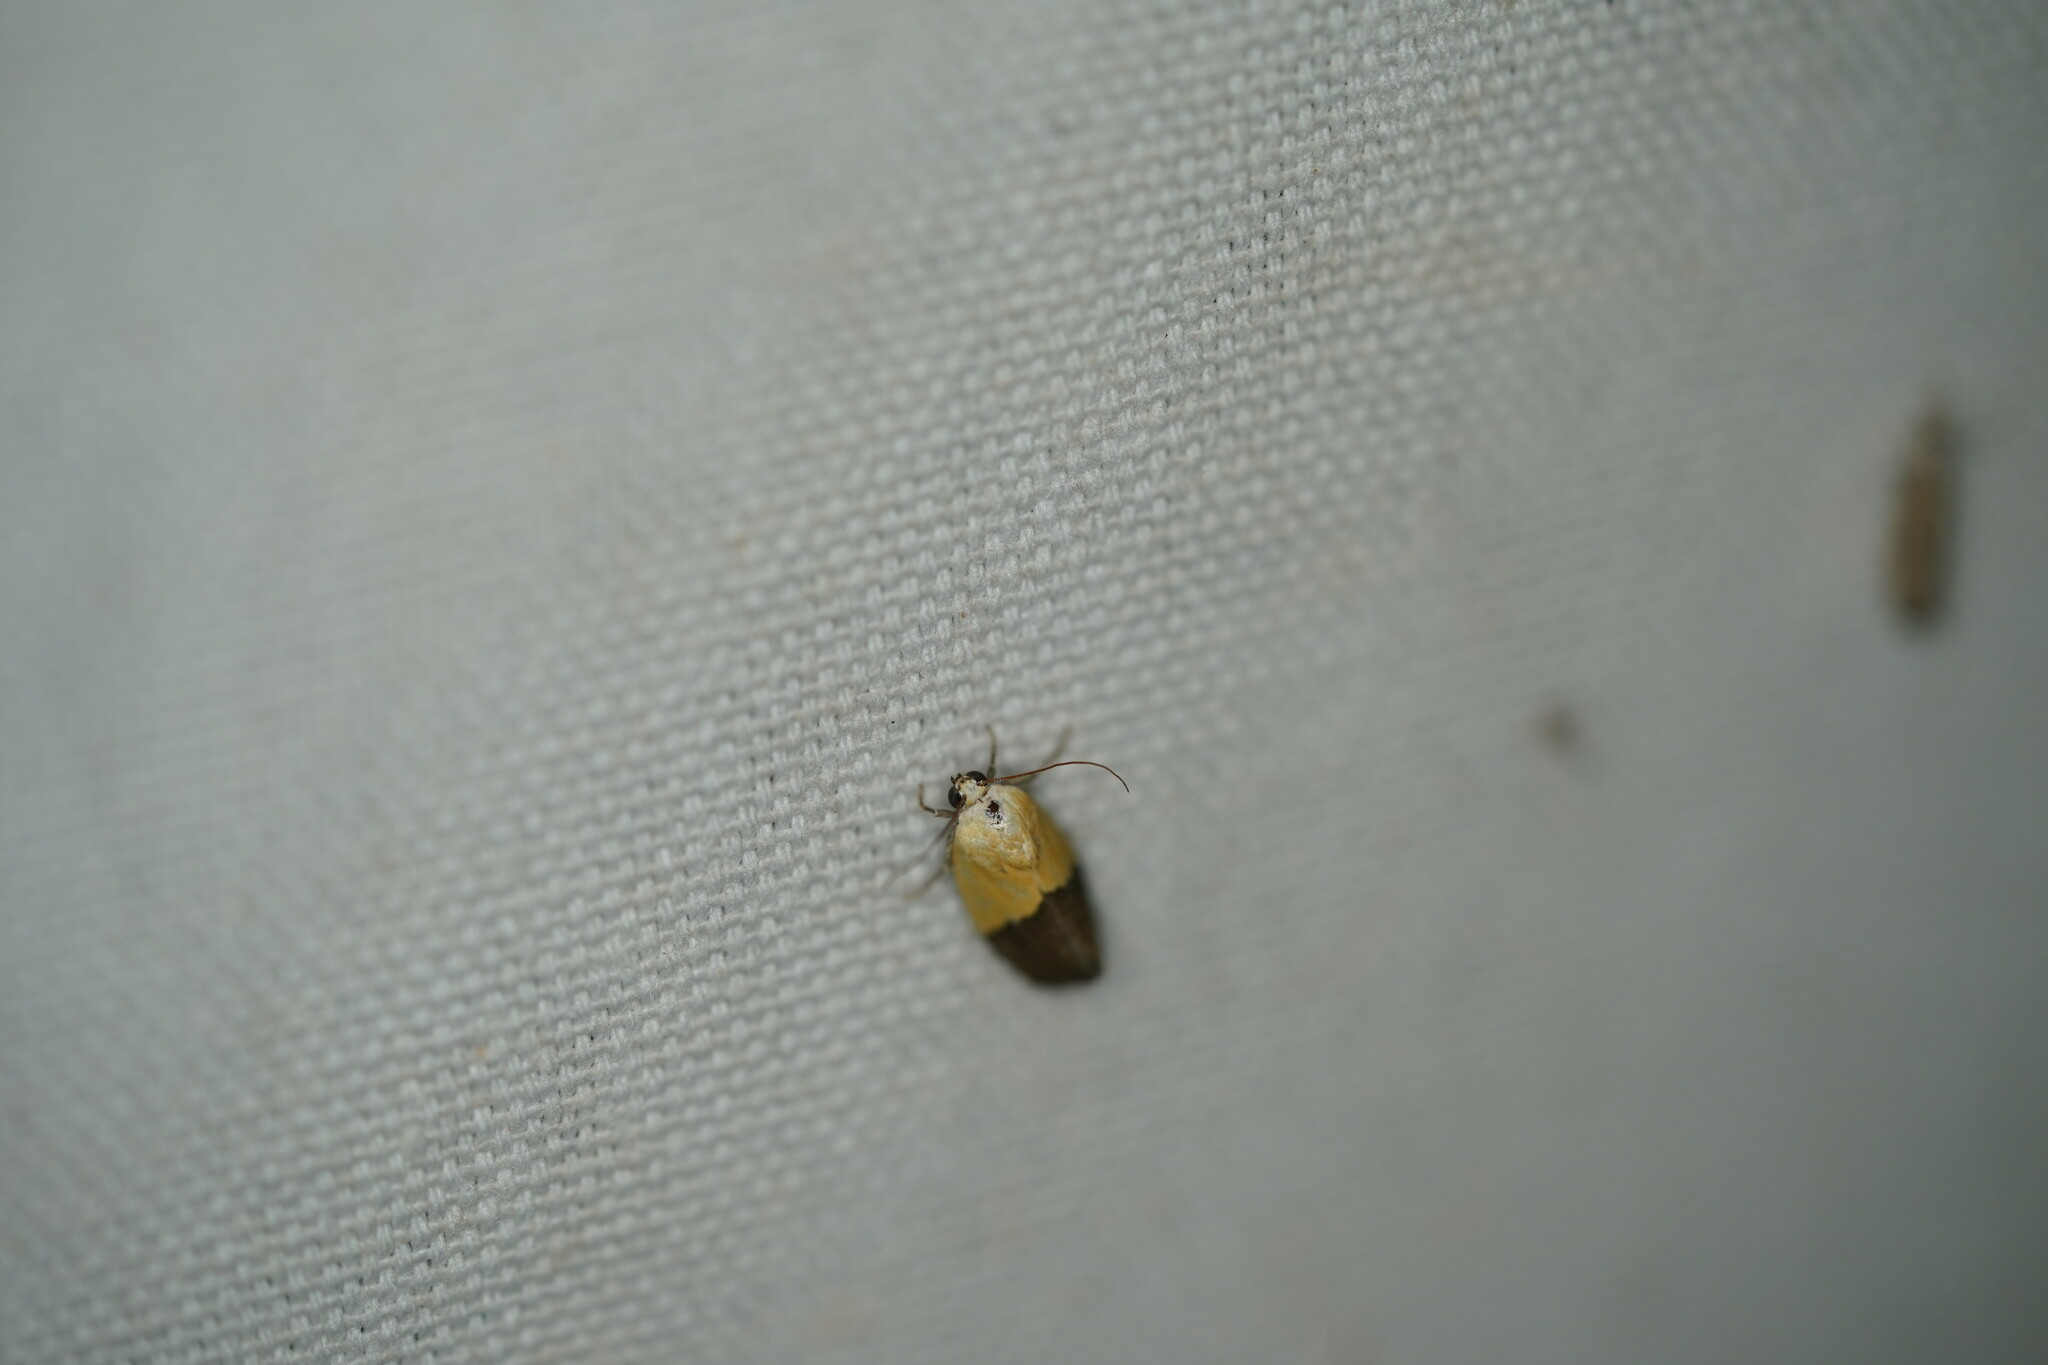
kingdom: Animalia
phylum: Arthropoda
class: Insecta
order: Lepidoptera
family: Noctuidae
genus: Acontia
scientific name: Acontia semiflava
